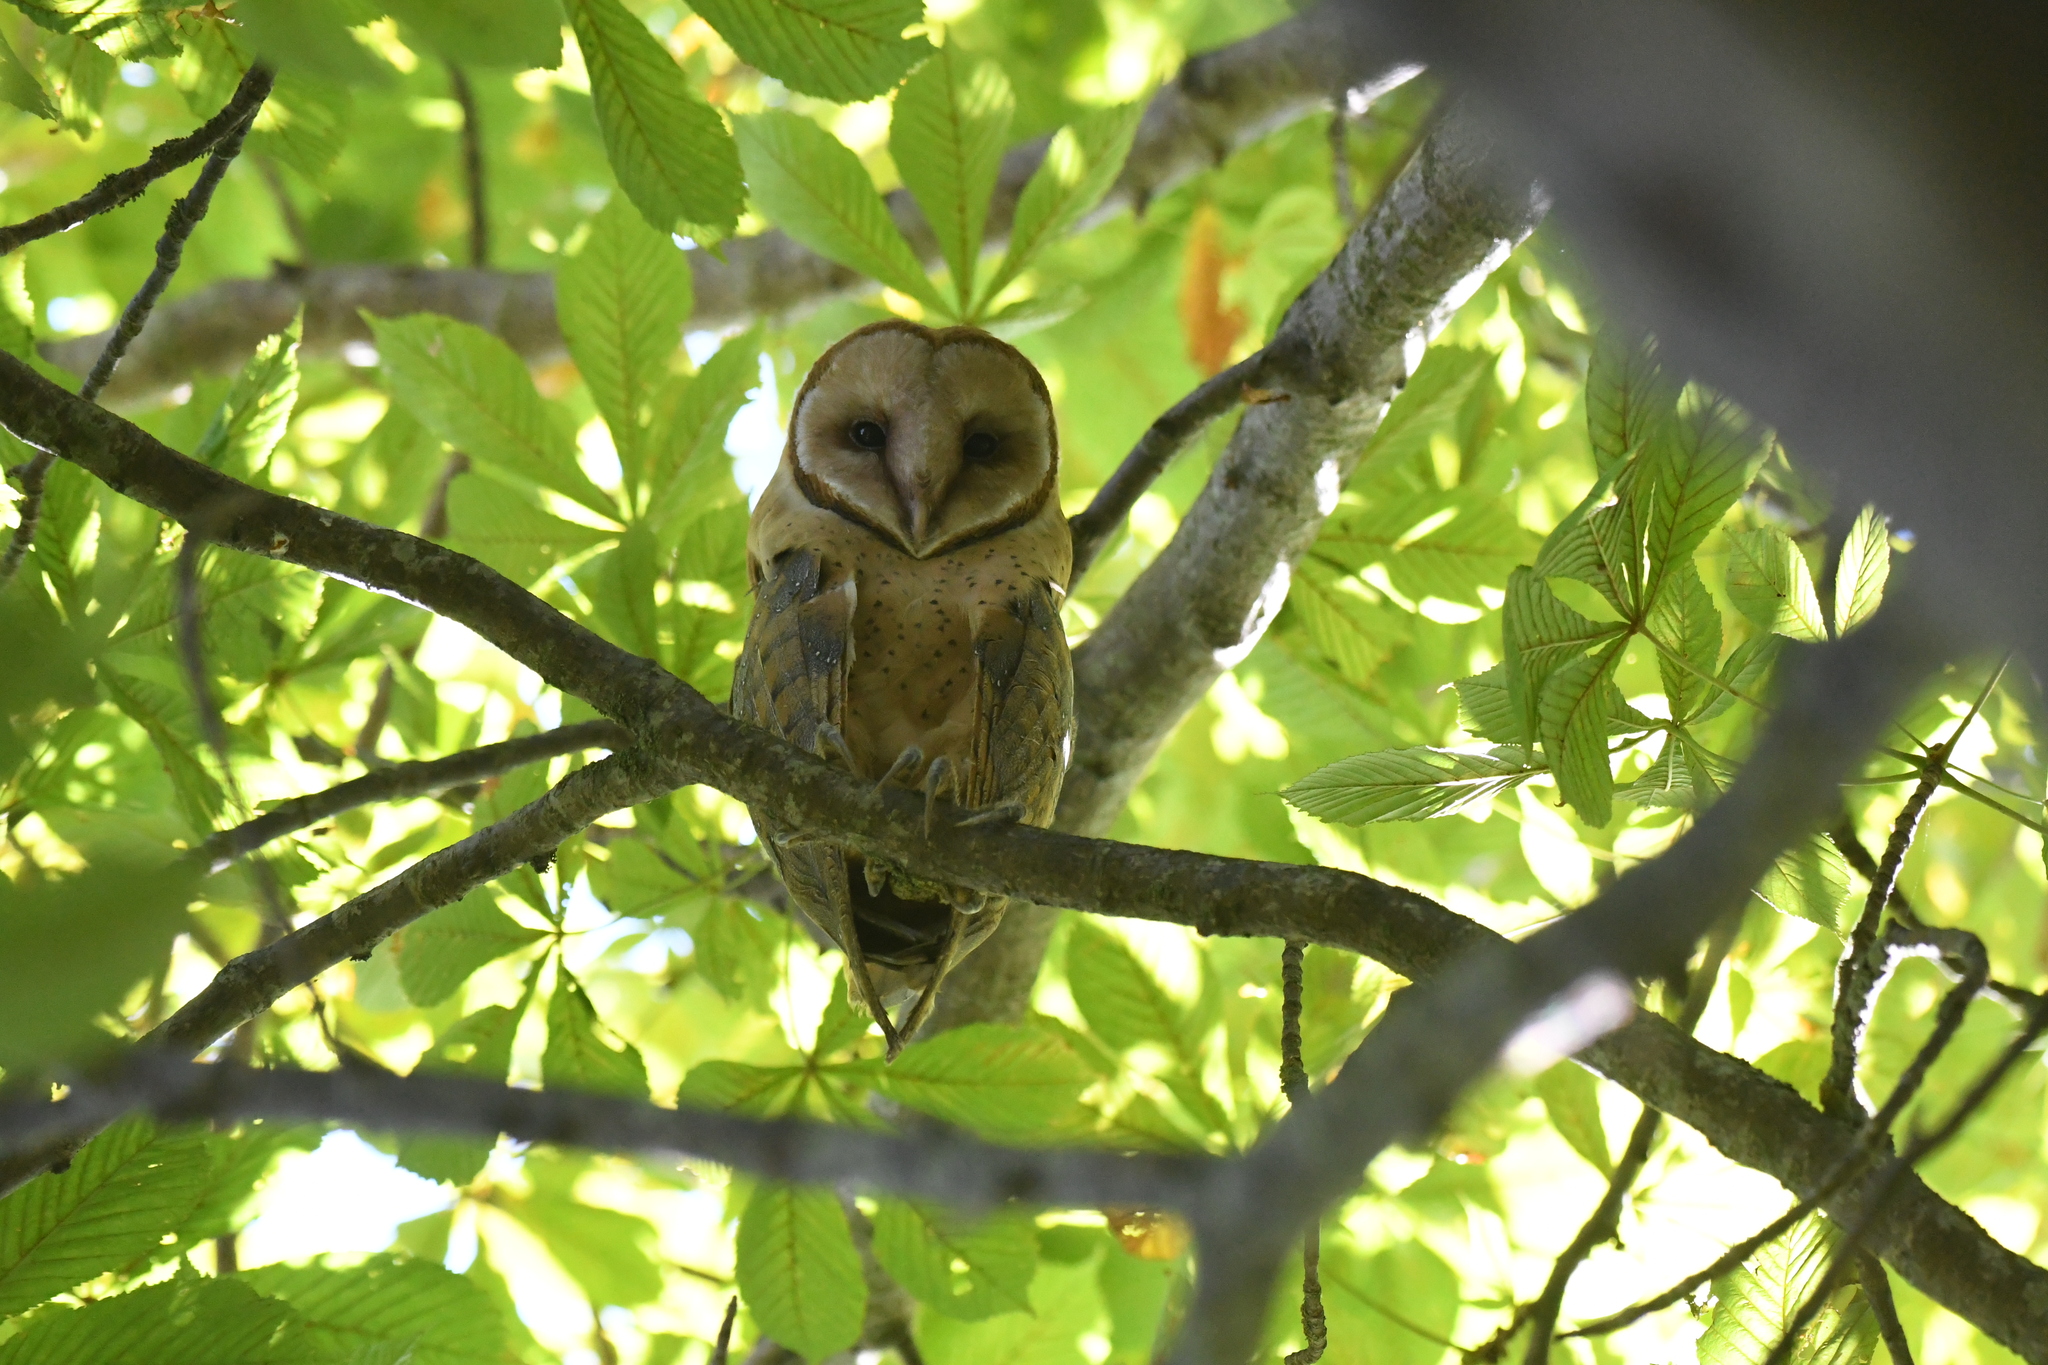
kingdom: Animalia
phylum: Chordata
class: Aves
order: Strigiformes
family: Tytonidae
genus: Tyto
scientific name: Tyto alba
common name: Barn owl
